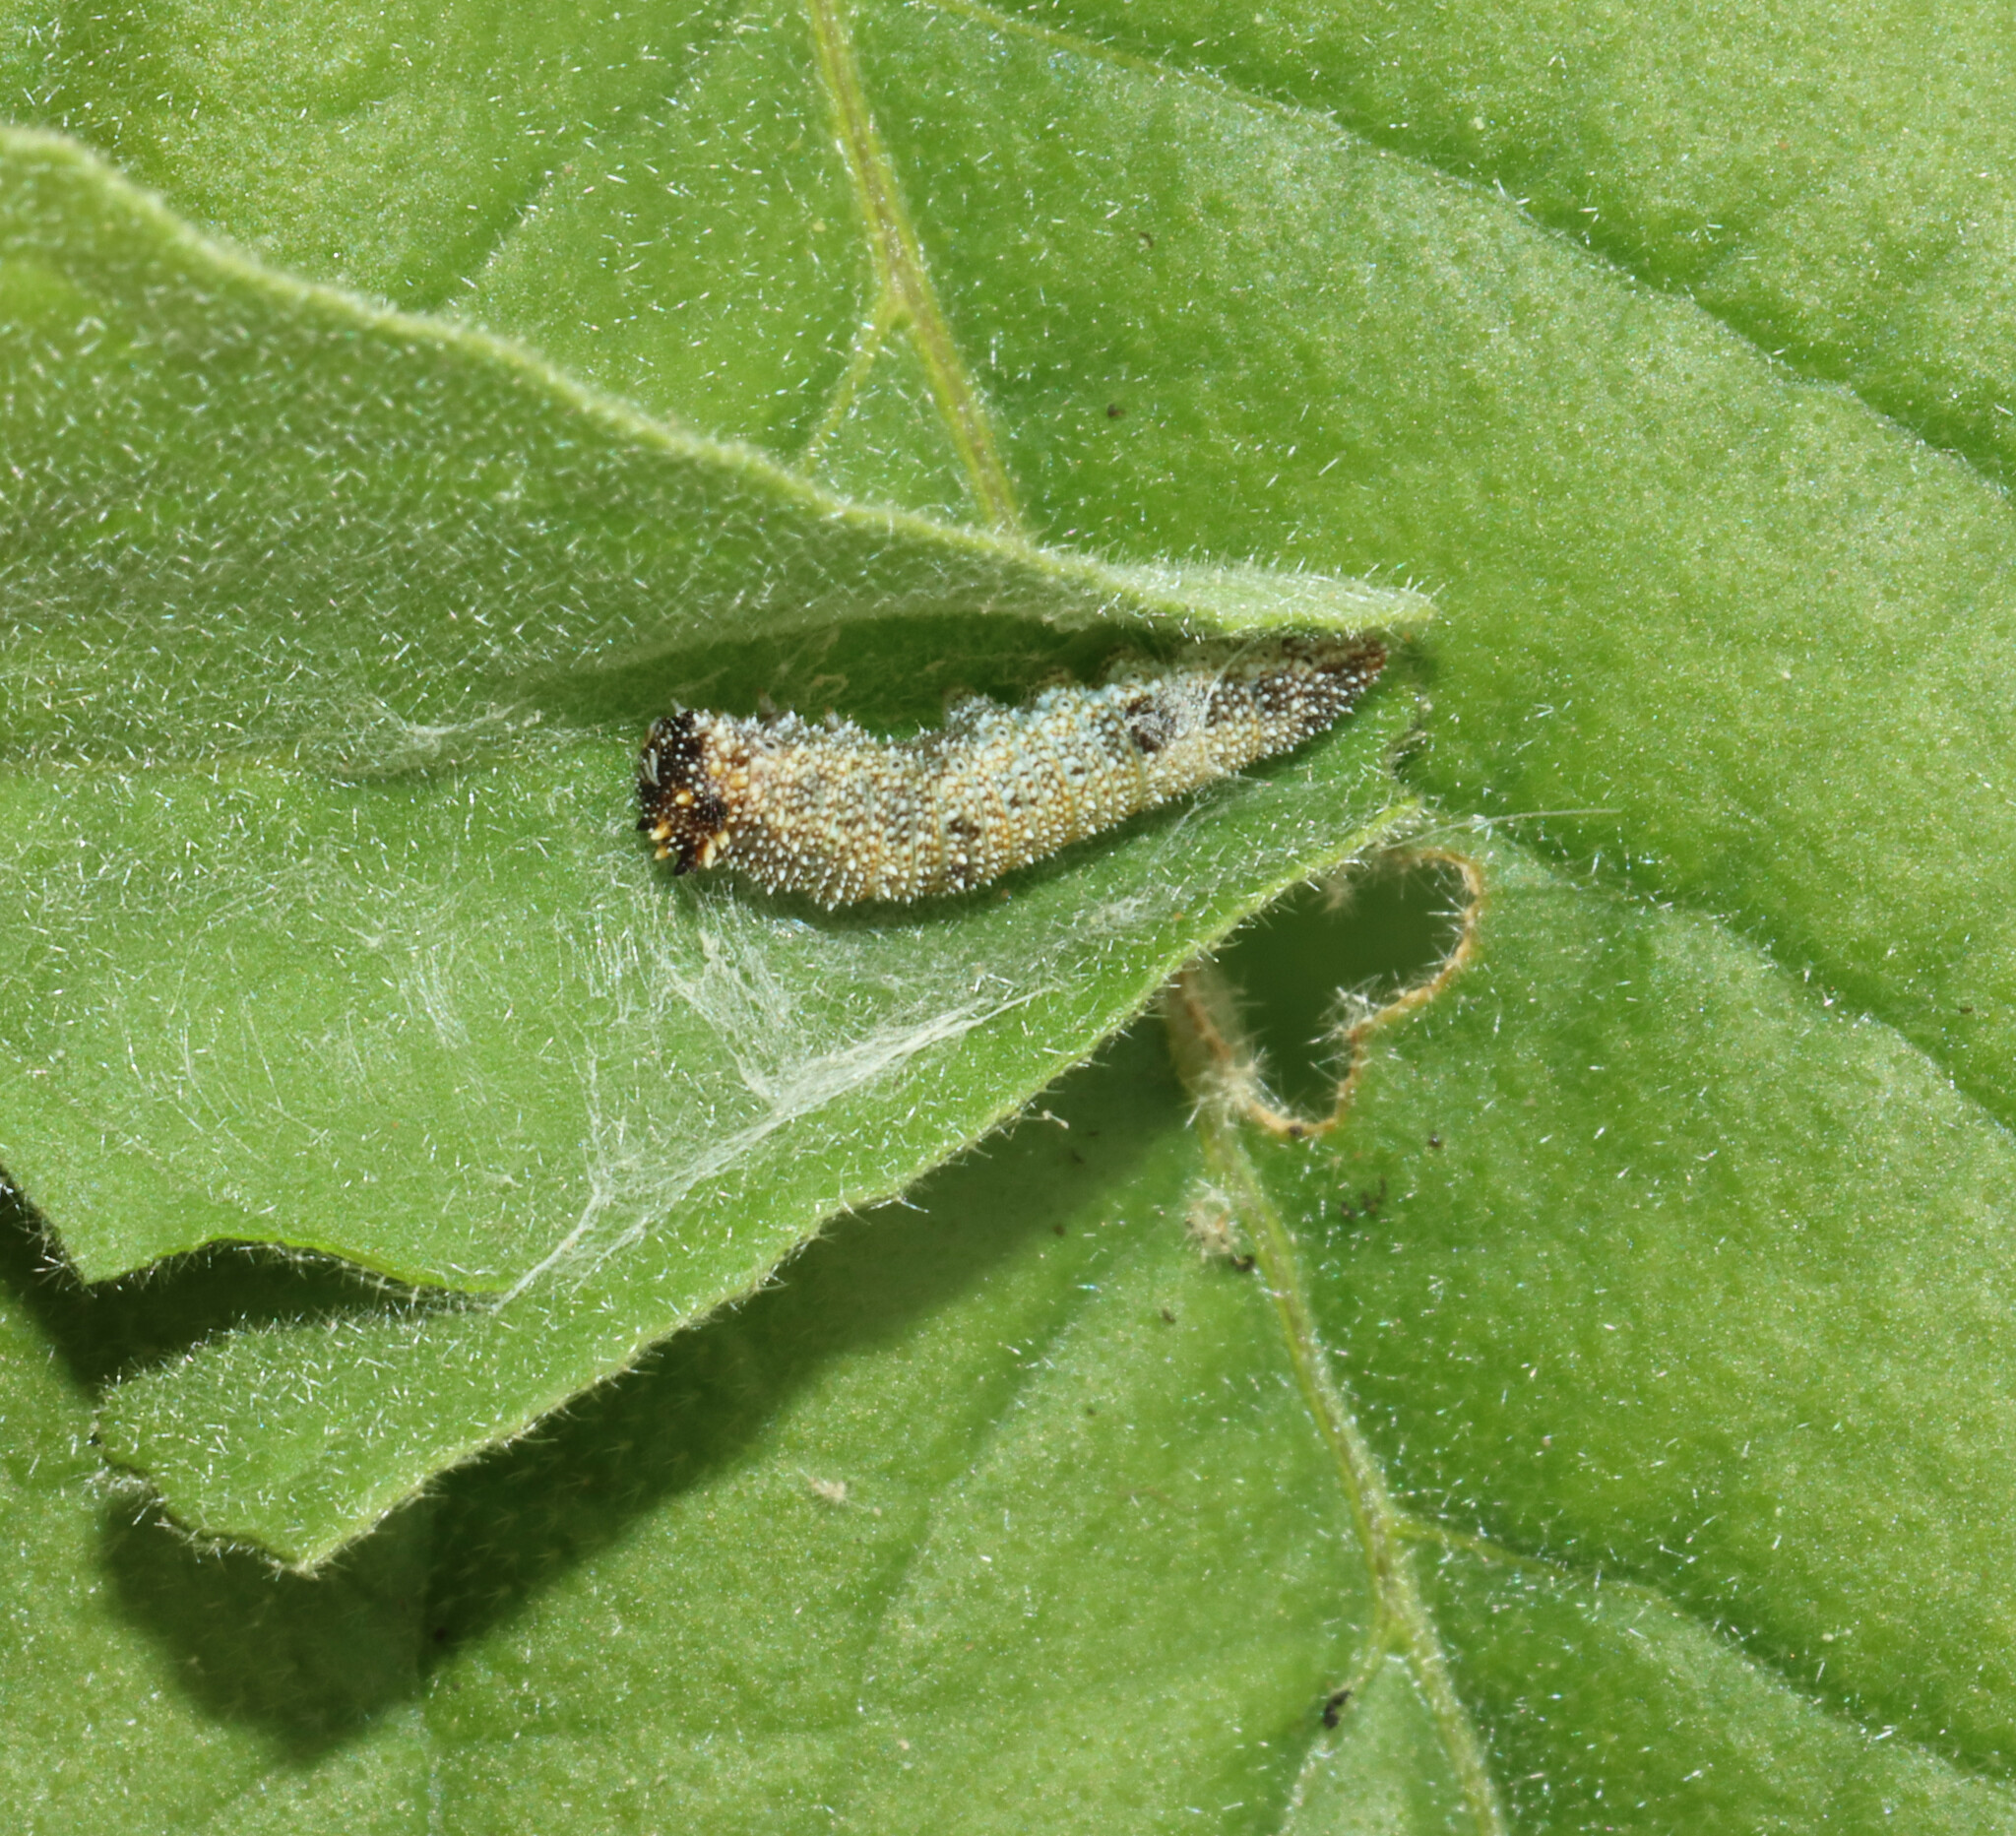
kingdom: Animalia
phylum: Arthropoda
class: Insecta
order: Lepidoptera
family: Nymphalidae
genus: Anaea
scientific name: Anaea andria
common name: Goatweed leafwing
